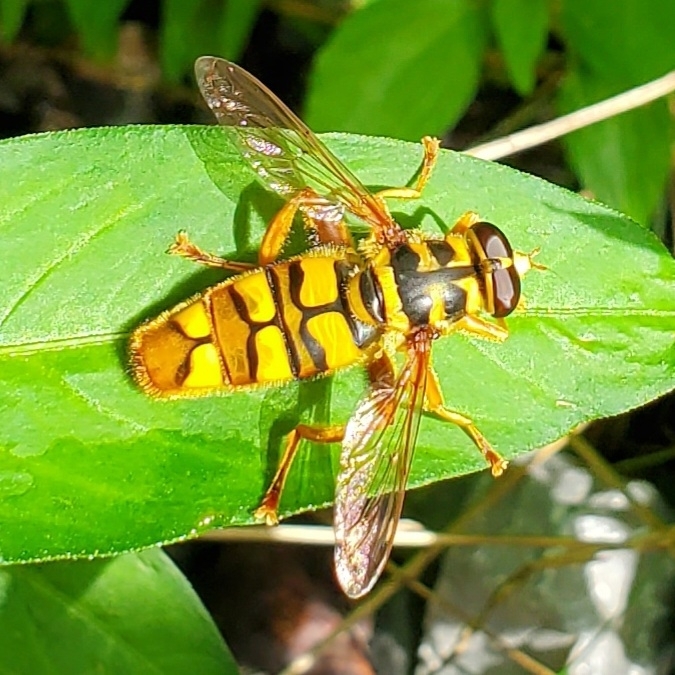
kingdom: Animalia
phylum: Arthropoda
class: Insecta
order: Diptera
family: Syrphidae
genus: Milesia
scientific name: Milesia virginiensis
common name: Virginia giant
